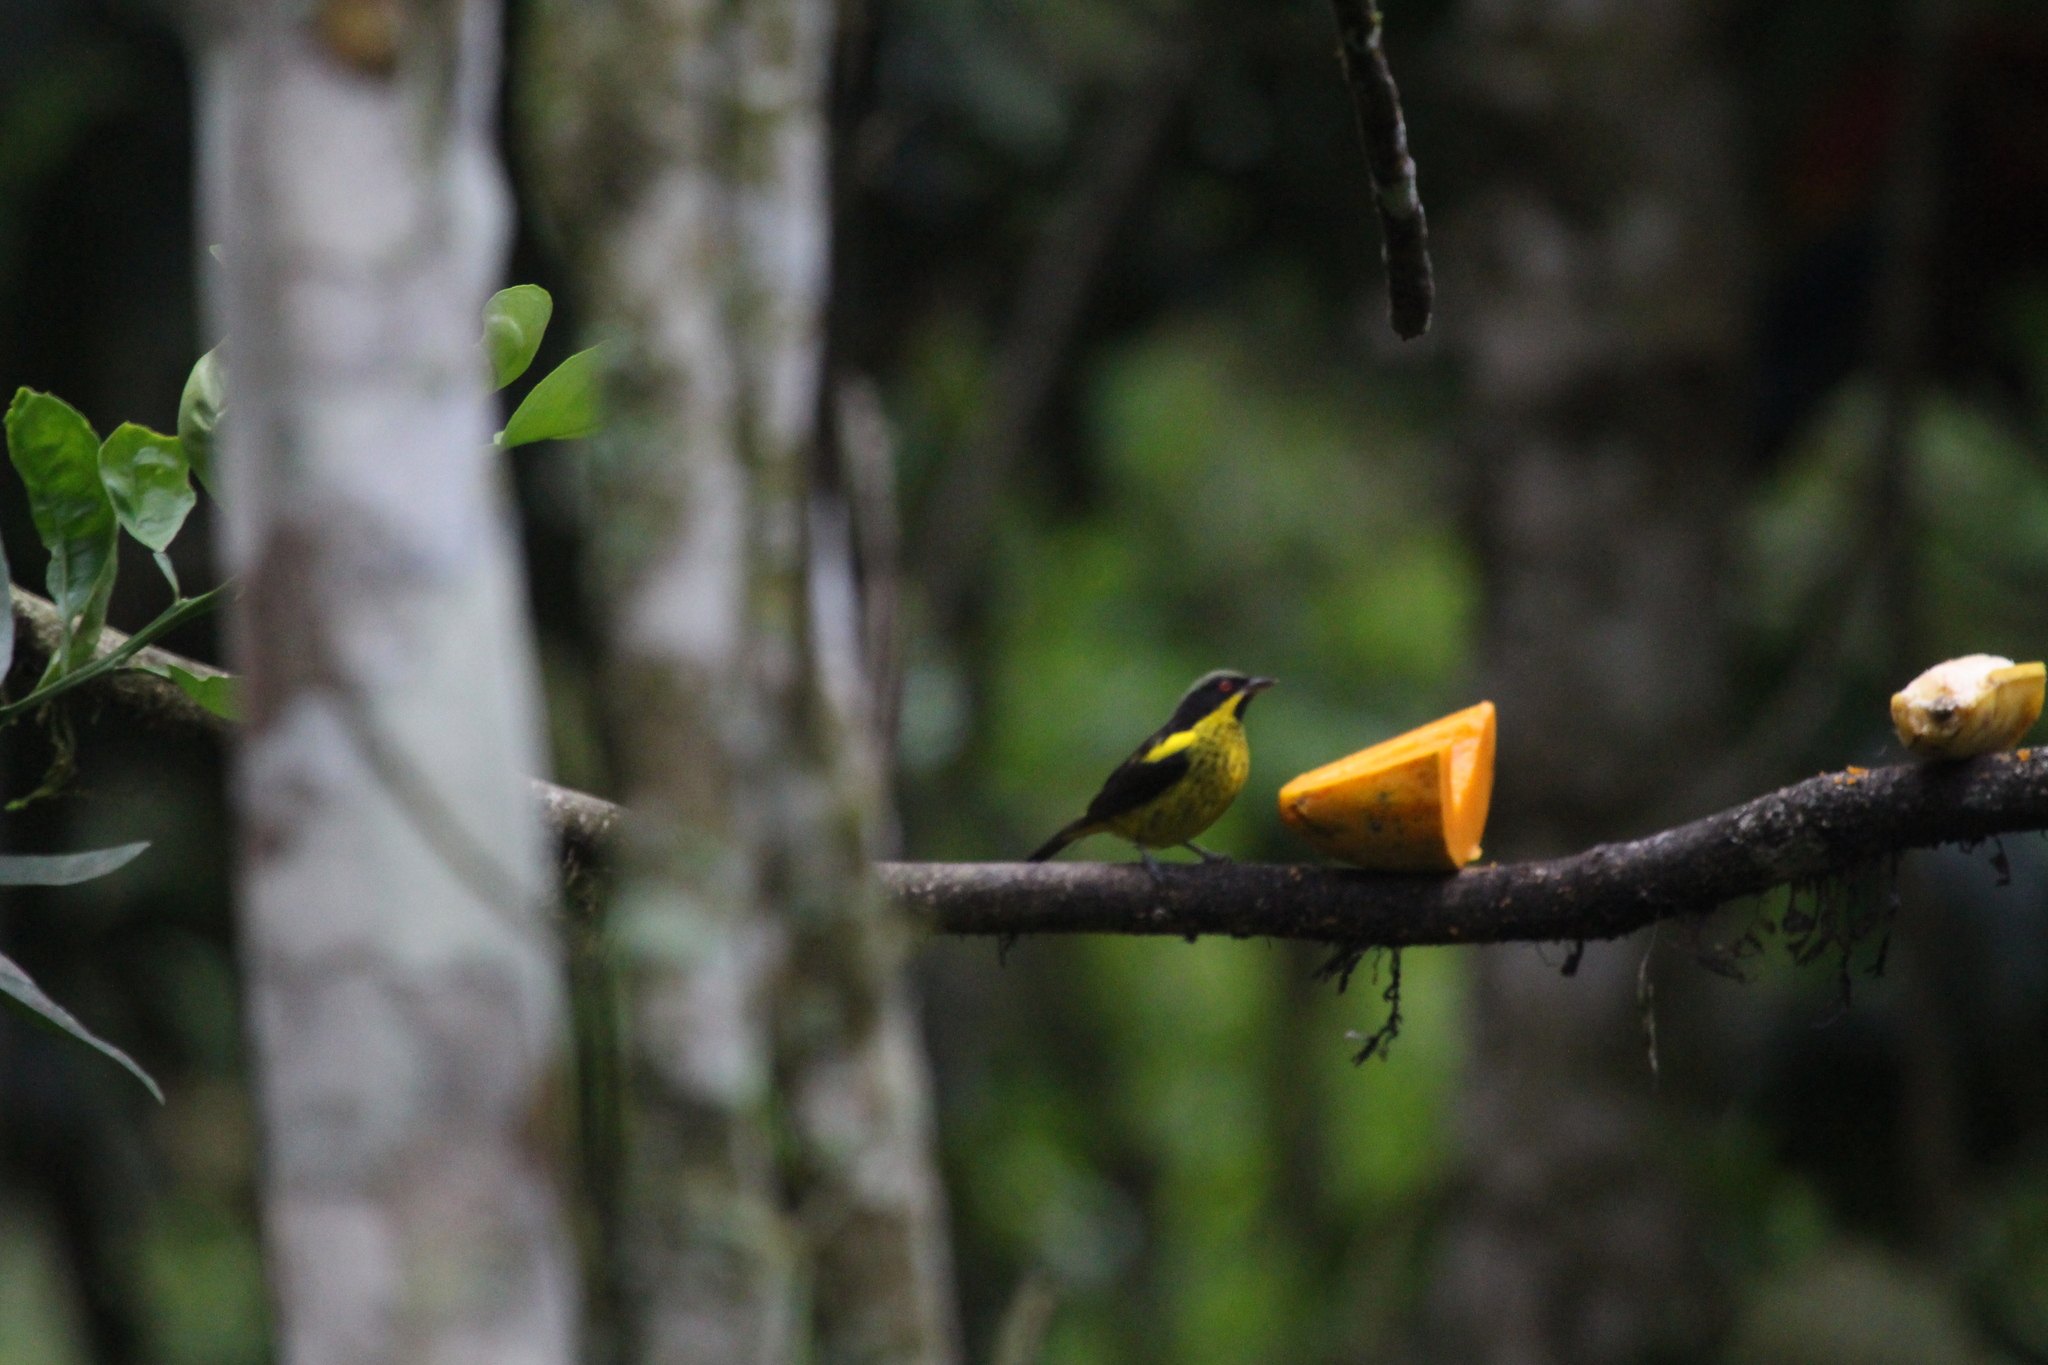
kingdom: Animalia
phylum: Chordata
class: Aves
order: Passeriformes
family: Thraupidae
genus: Dacnis
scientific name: Dacnis flaviventer
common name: Yellow-bellied dacnis
